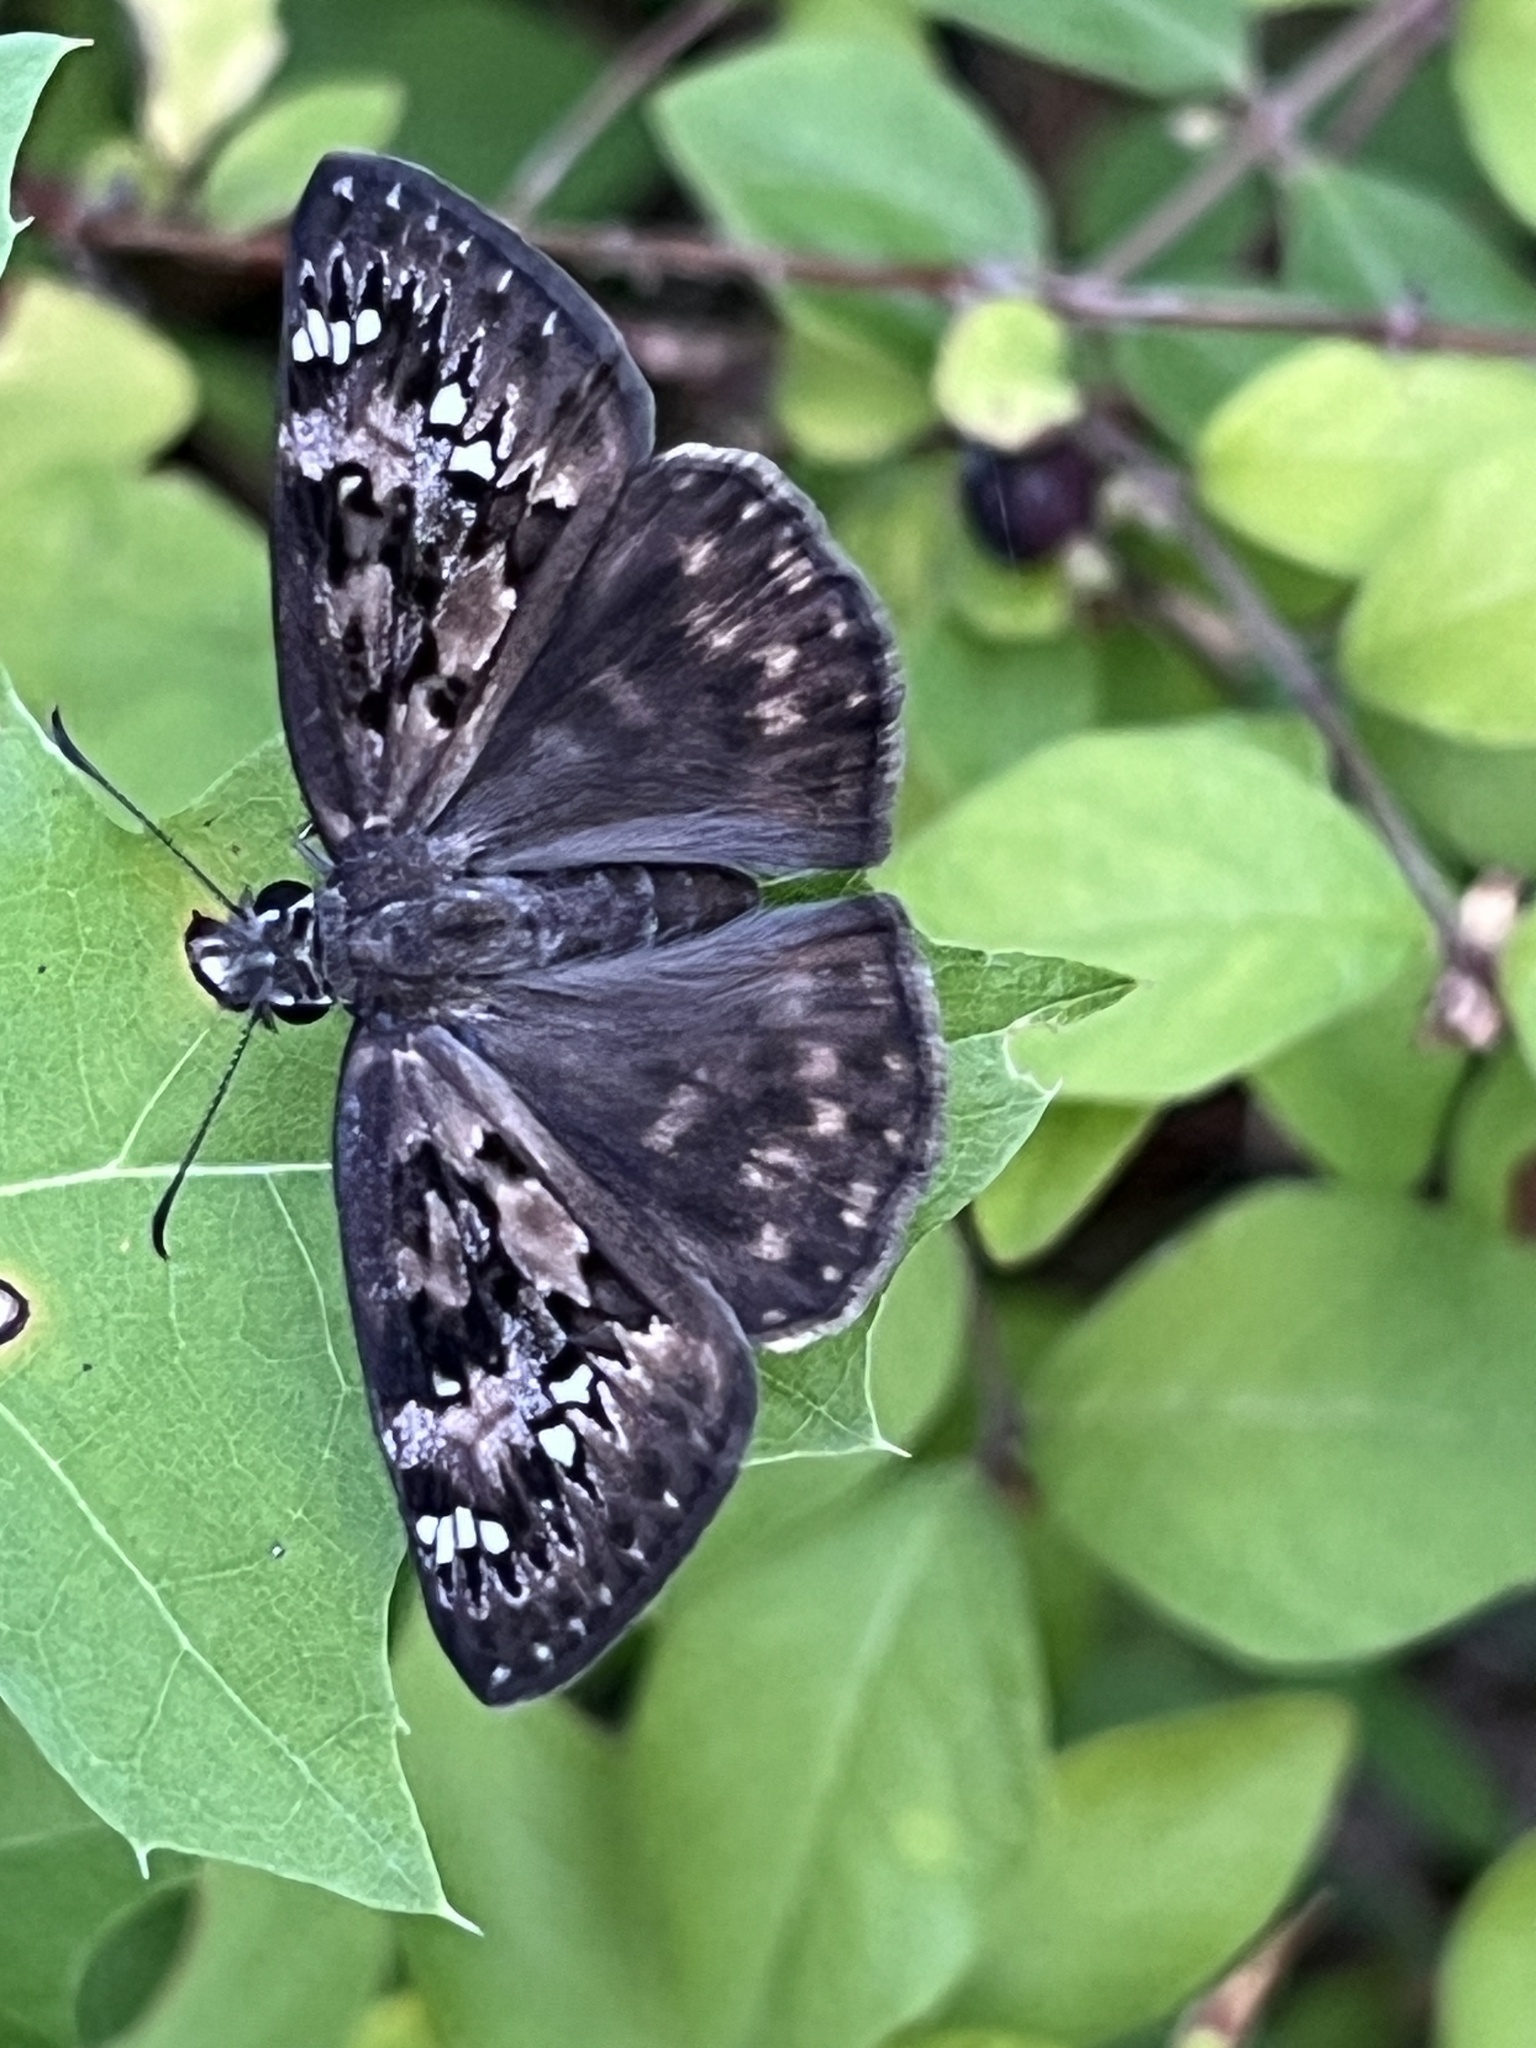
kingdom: Animalia
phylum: Arthropoda
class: Insecta
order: Lepidoptera
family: Hesperiidae
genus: Erynnis
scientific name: Erynnis horatius
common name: Horace's duskywing
